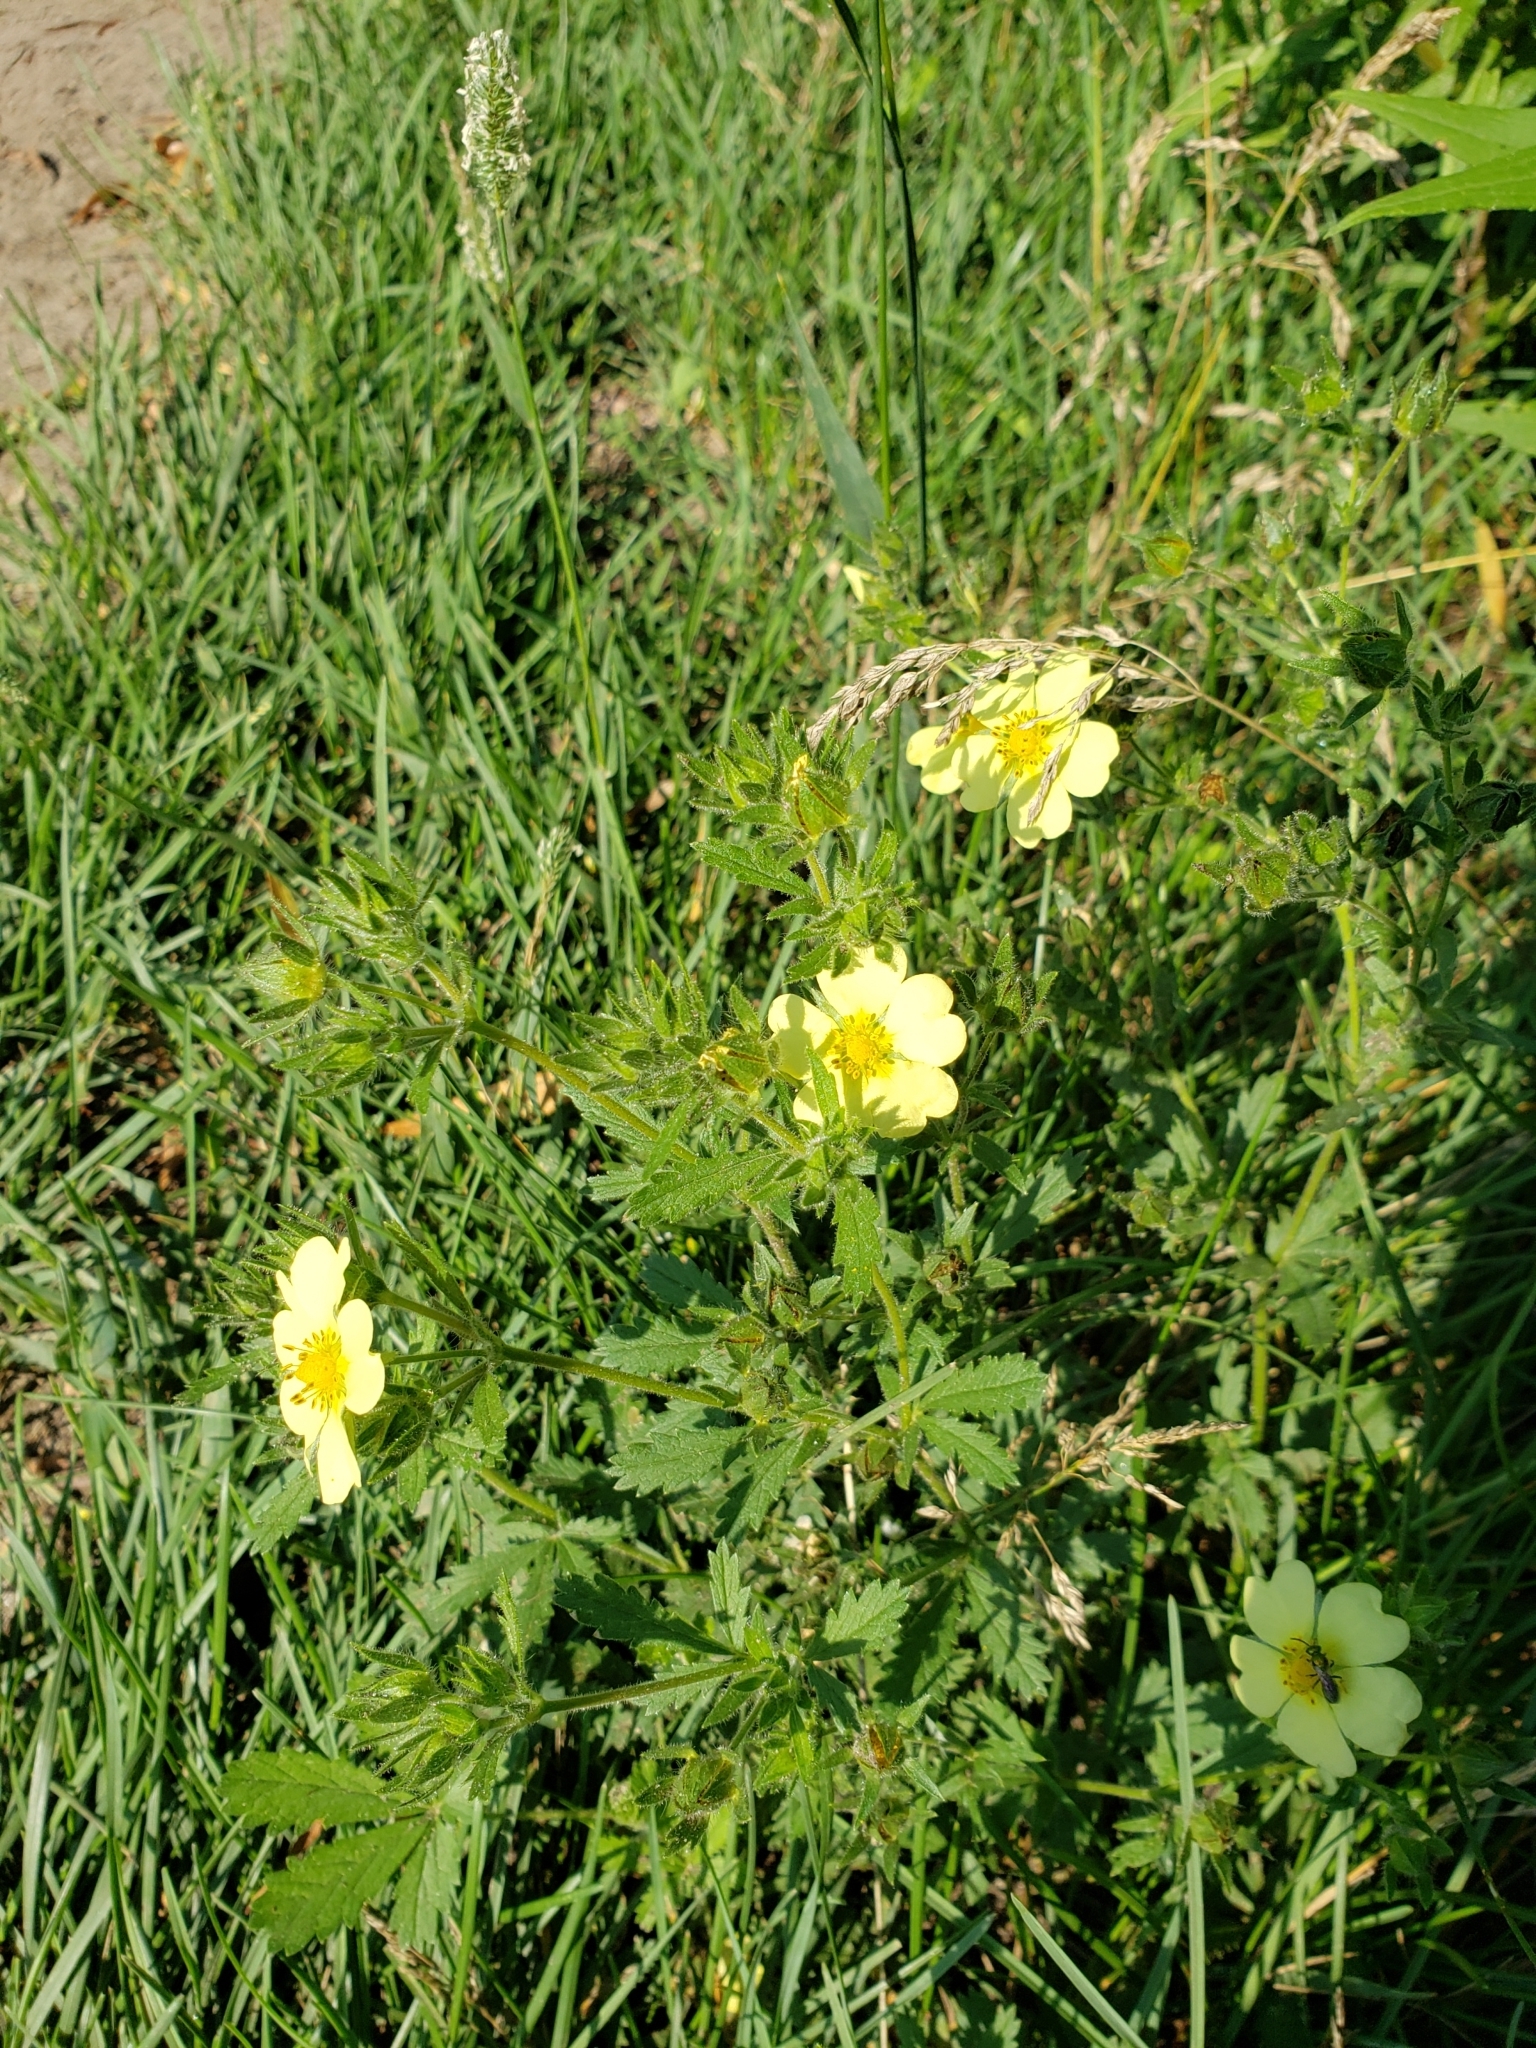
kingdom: Plantae
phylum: Tracheophyta
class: Magnoliopsida
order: Rosales
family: Rosaceae
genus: Potentilla
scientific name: Potentilla recta
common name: Sulphur cinquefoil
